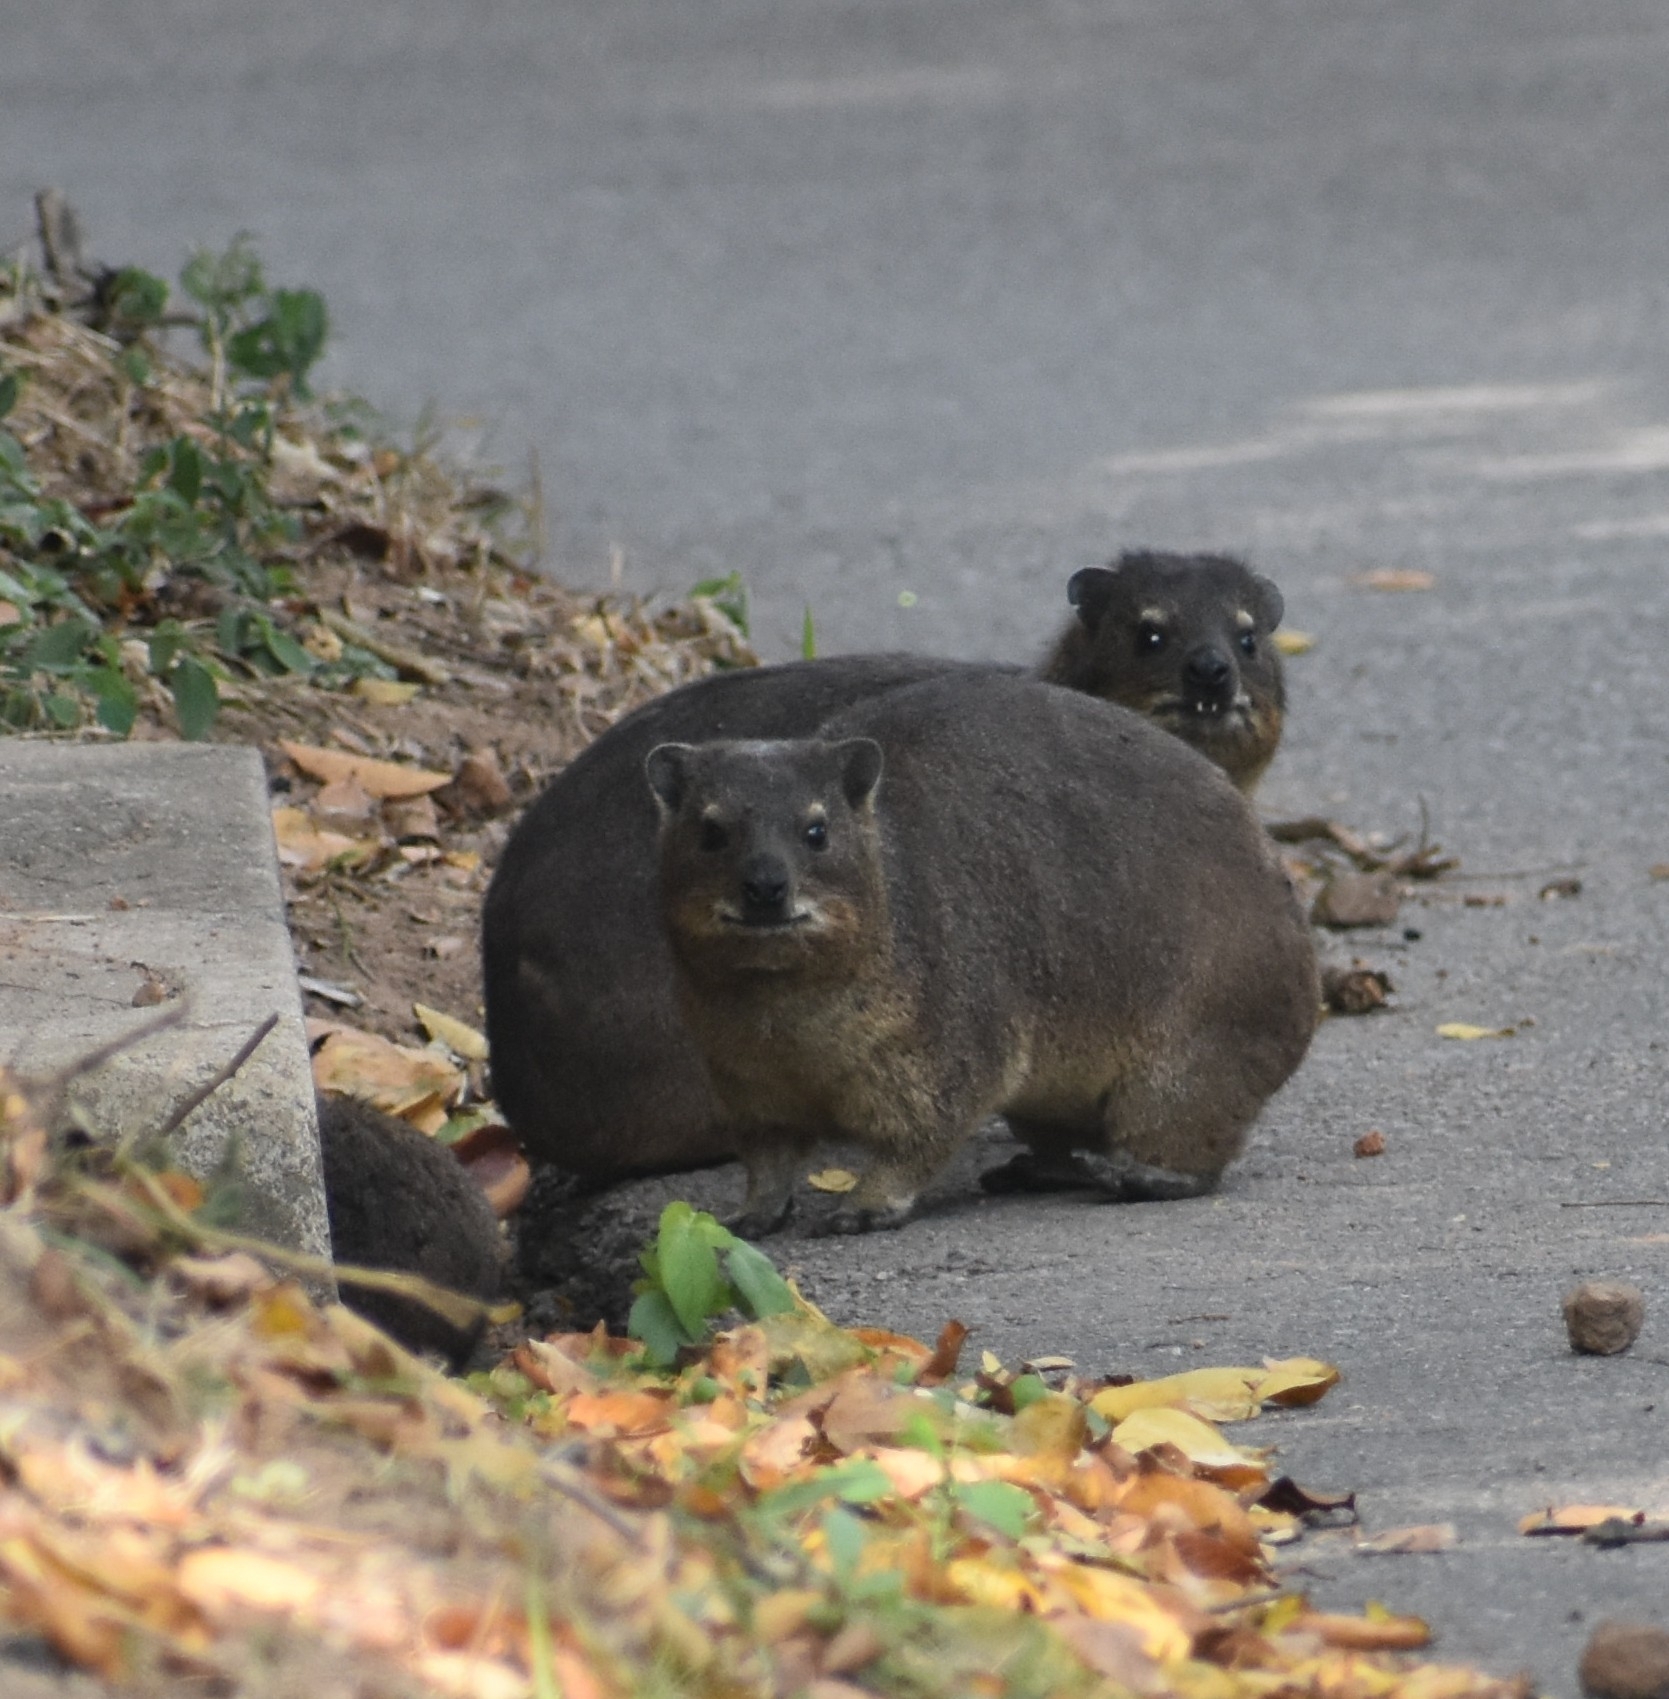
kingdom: Animalia
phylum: Chordata
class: Mammalia
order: Hyracoidea
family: Procaviidae
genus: Procavia
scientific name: Procavia capensis
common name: Rock hyrax
